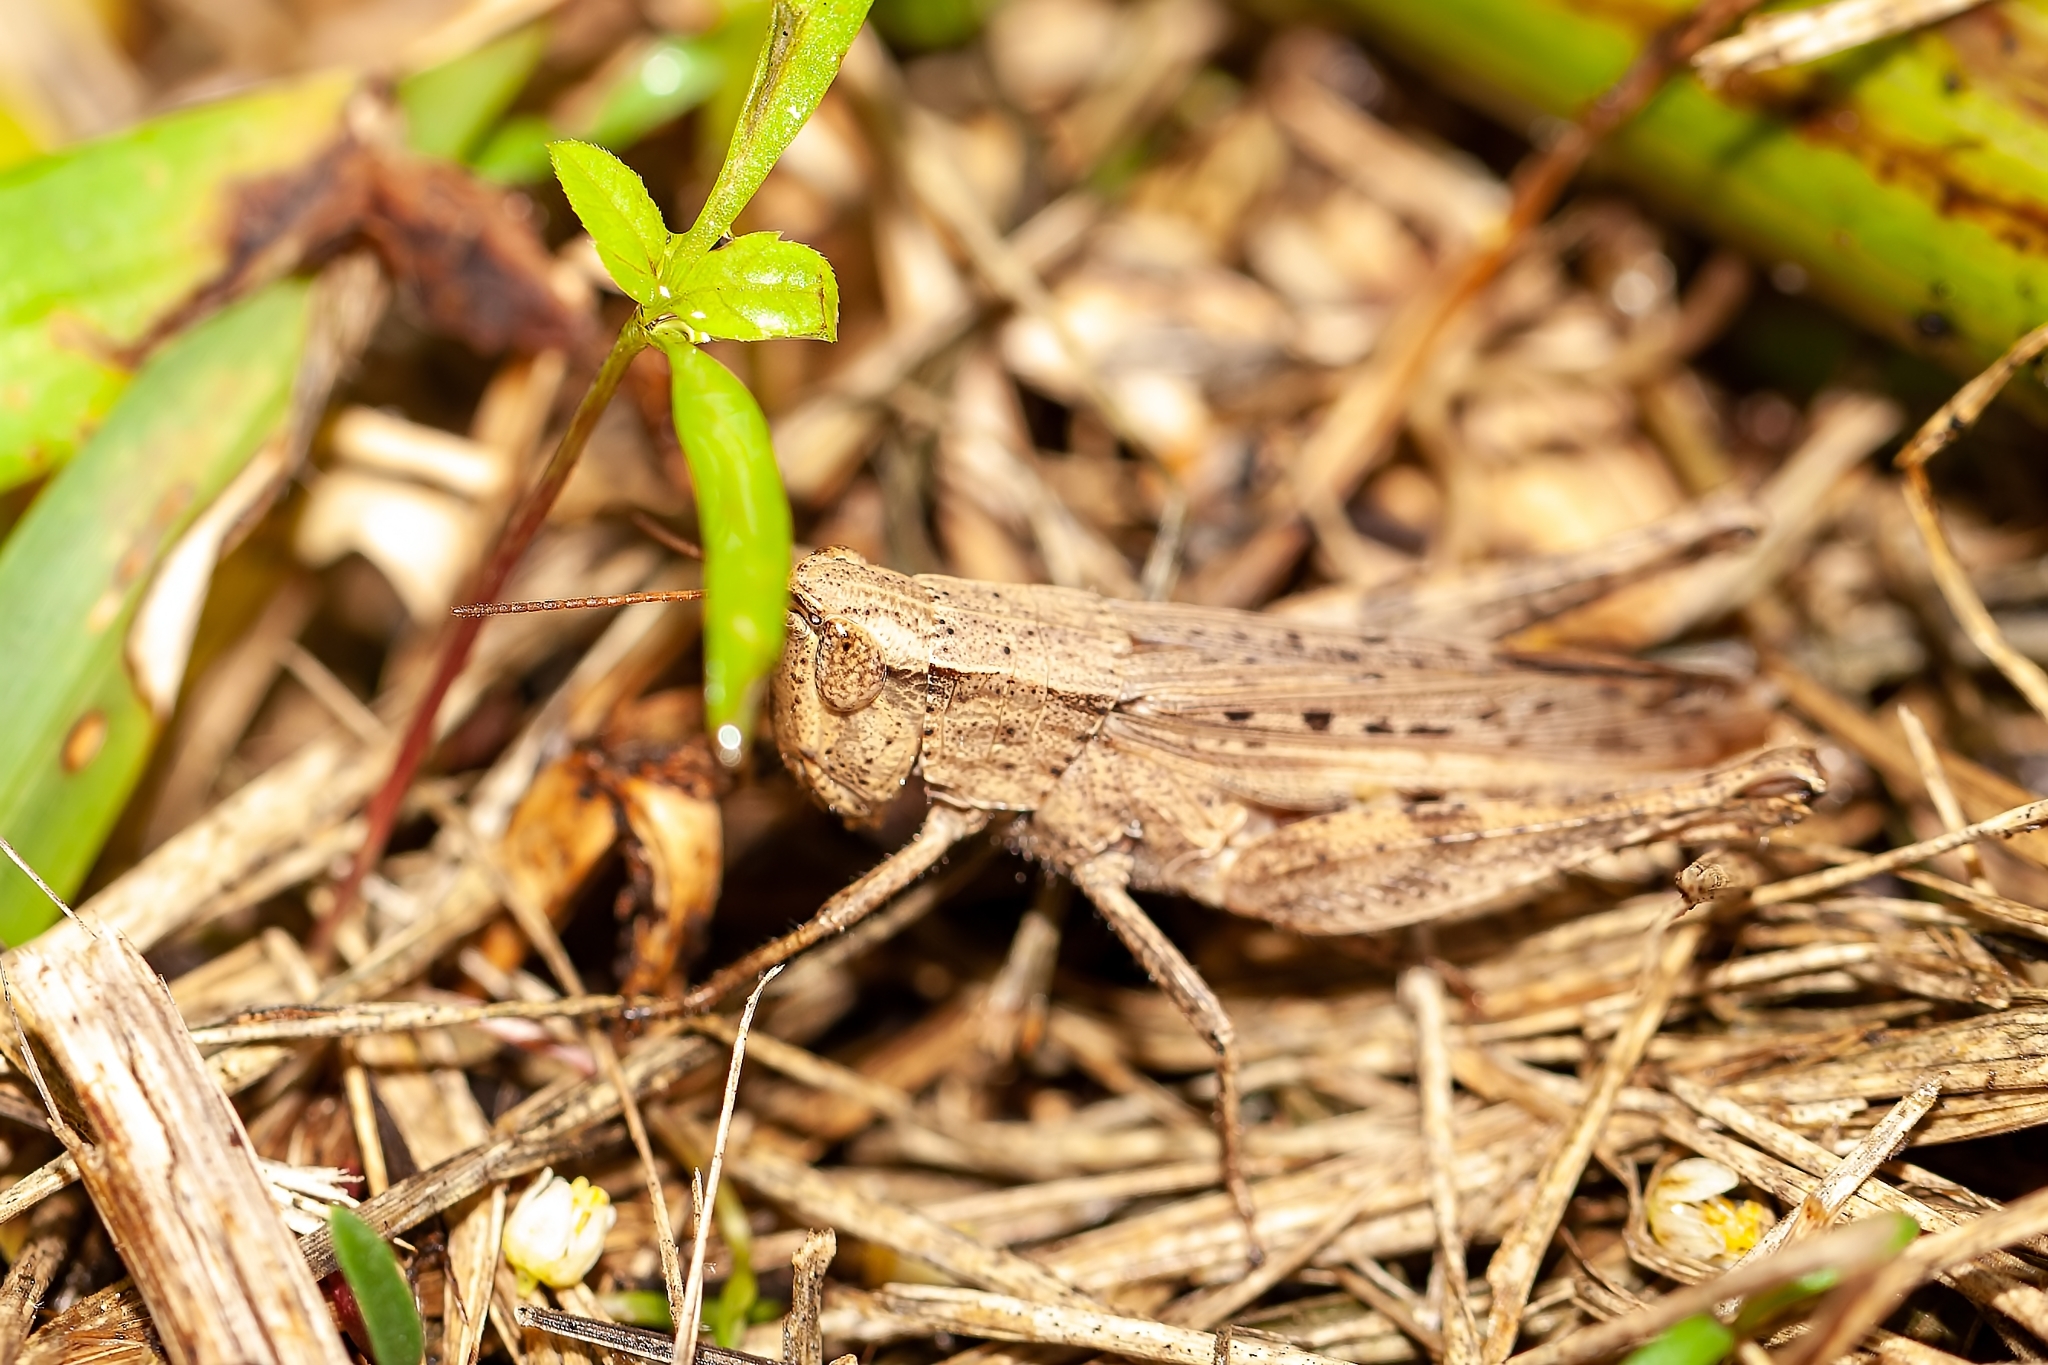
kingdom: Animalia
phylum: Arthropoda
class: Insecta
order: Orthoptera
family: Acrididae
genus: Dichromorpha
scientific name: Dichromorpha viridis
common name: Short-winged green grasshopper
